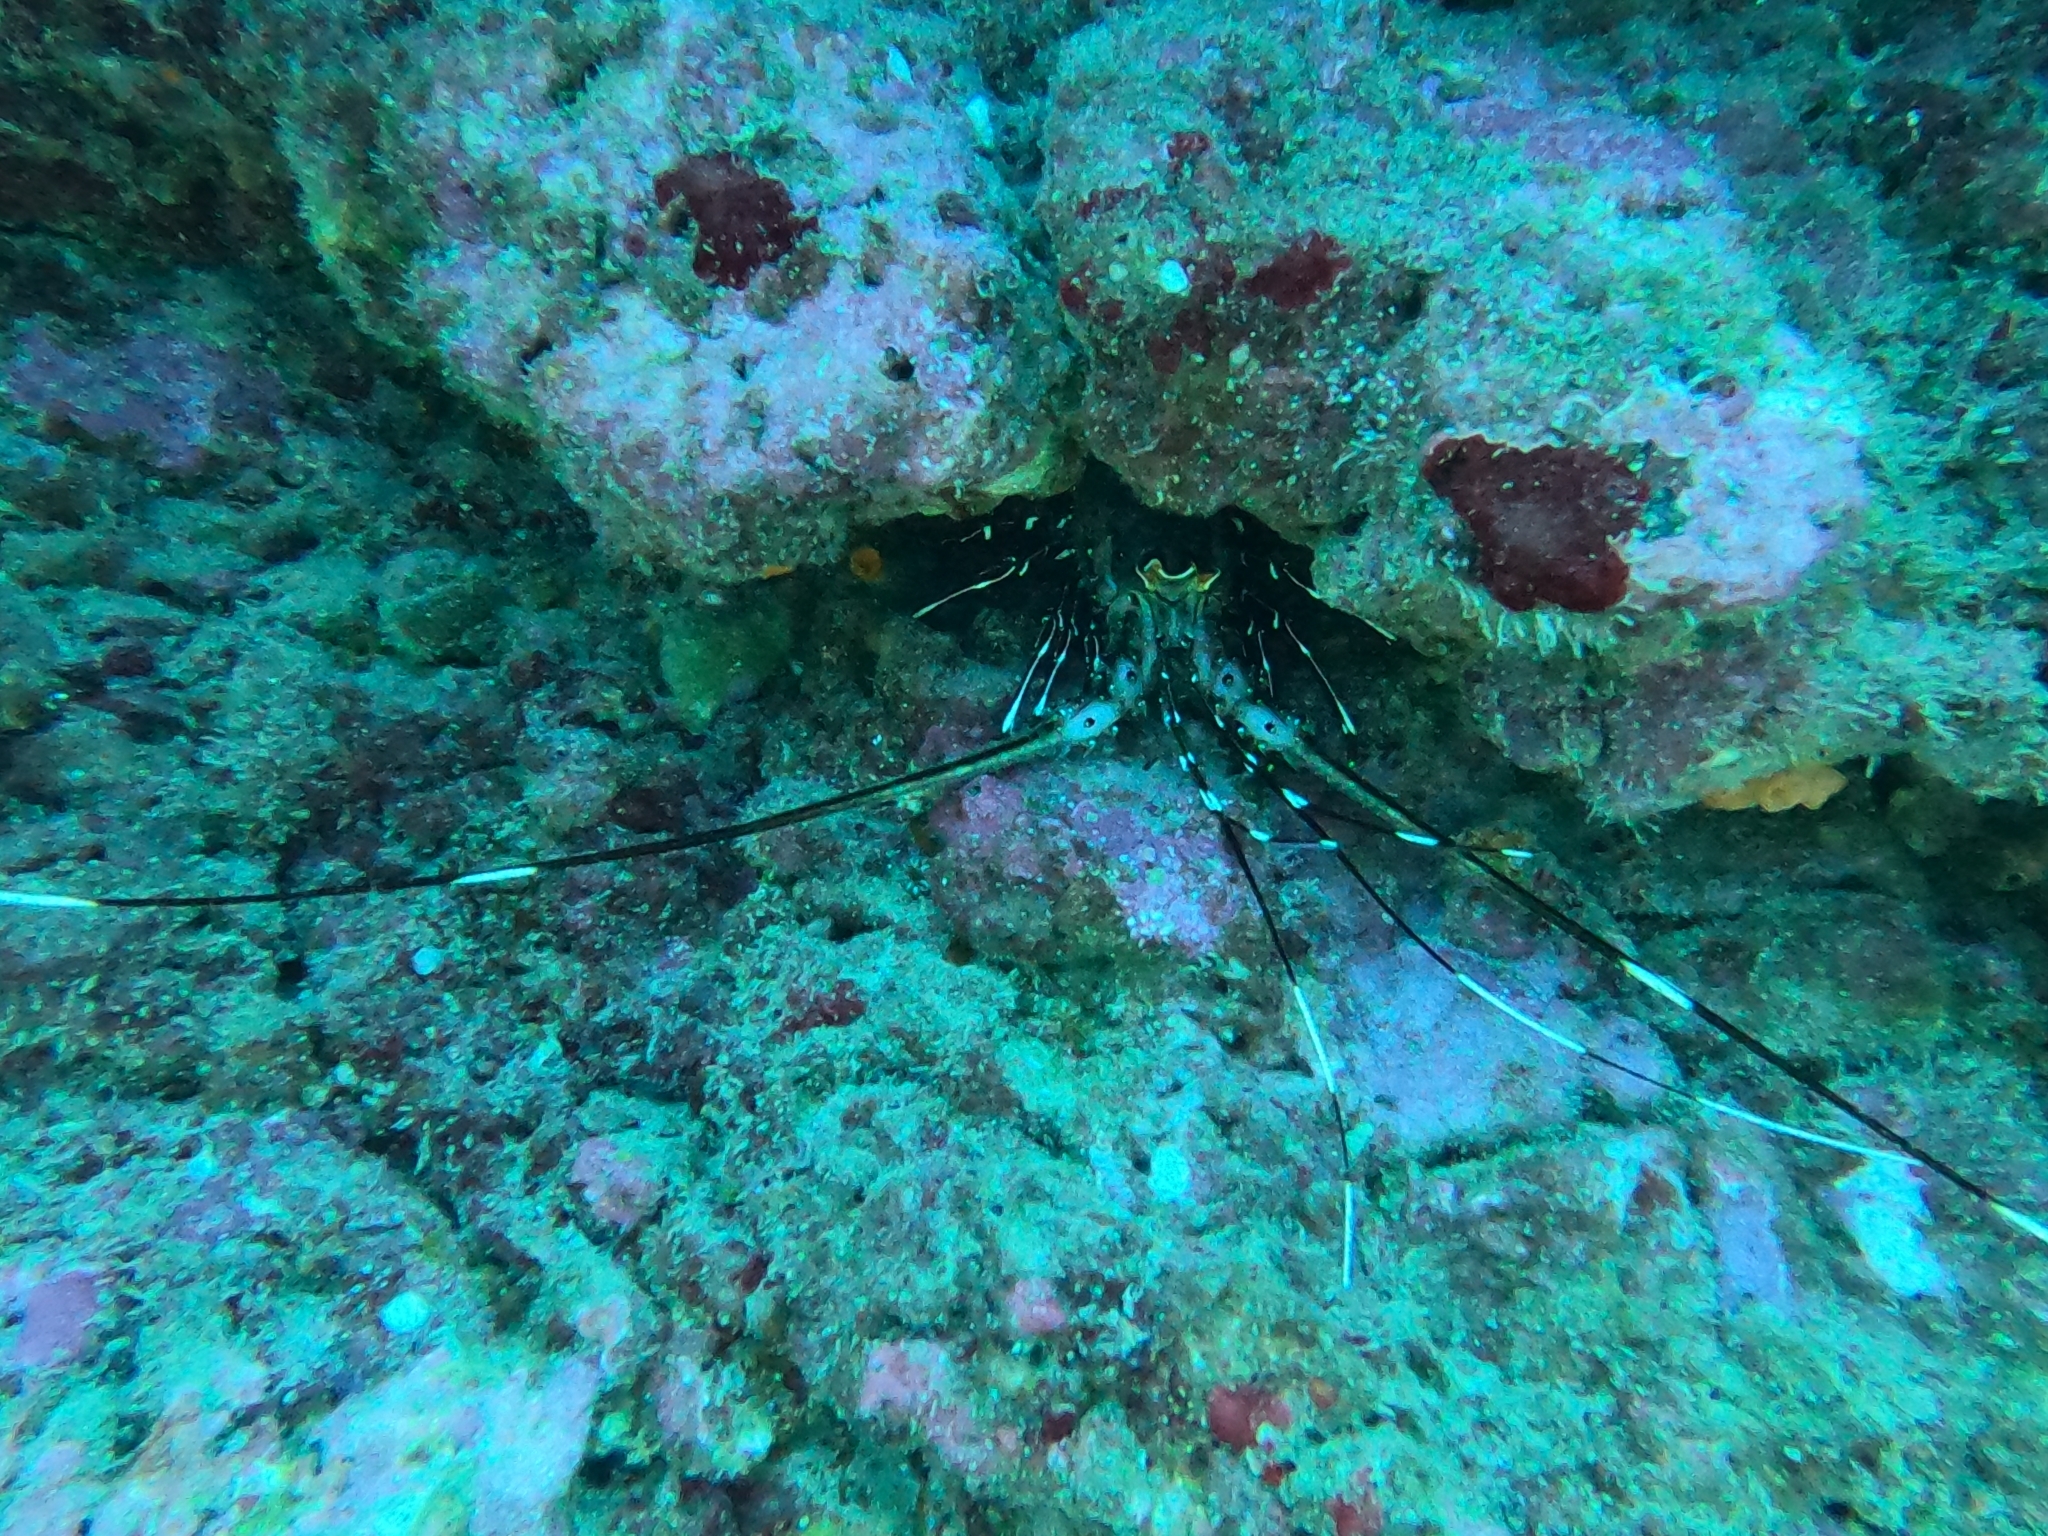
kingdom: Animalia
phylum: Arthropoda
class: Malacostraca
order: Decapoda
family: Palinuridae
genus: Panulirus
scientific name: Panulirus gracilis
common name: Green spiny lobster
